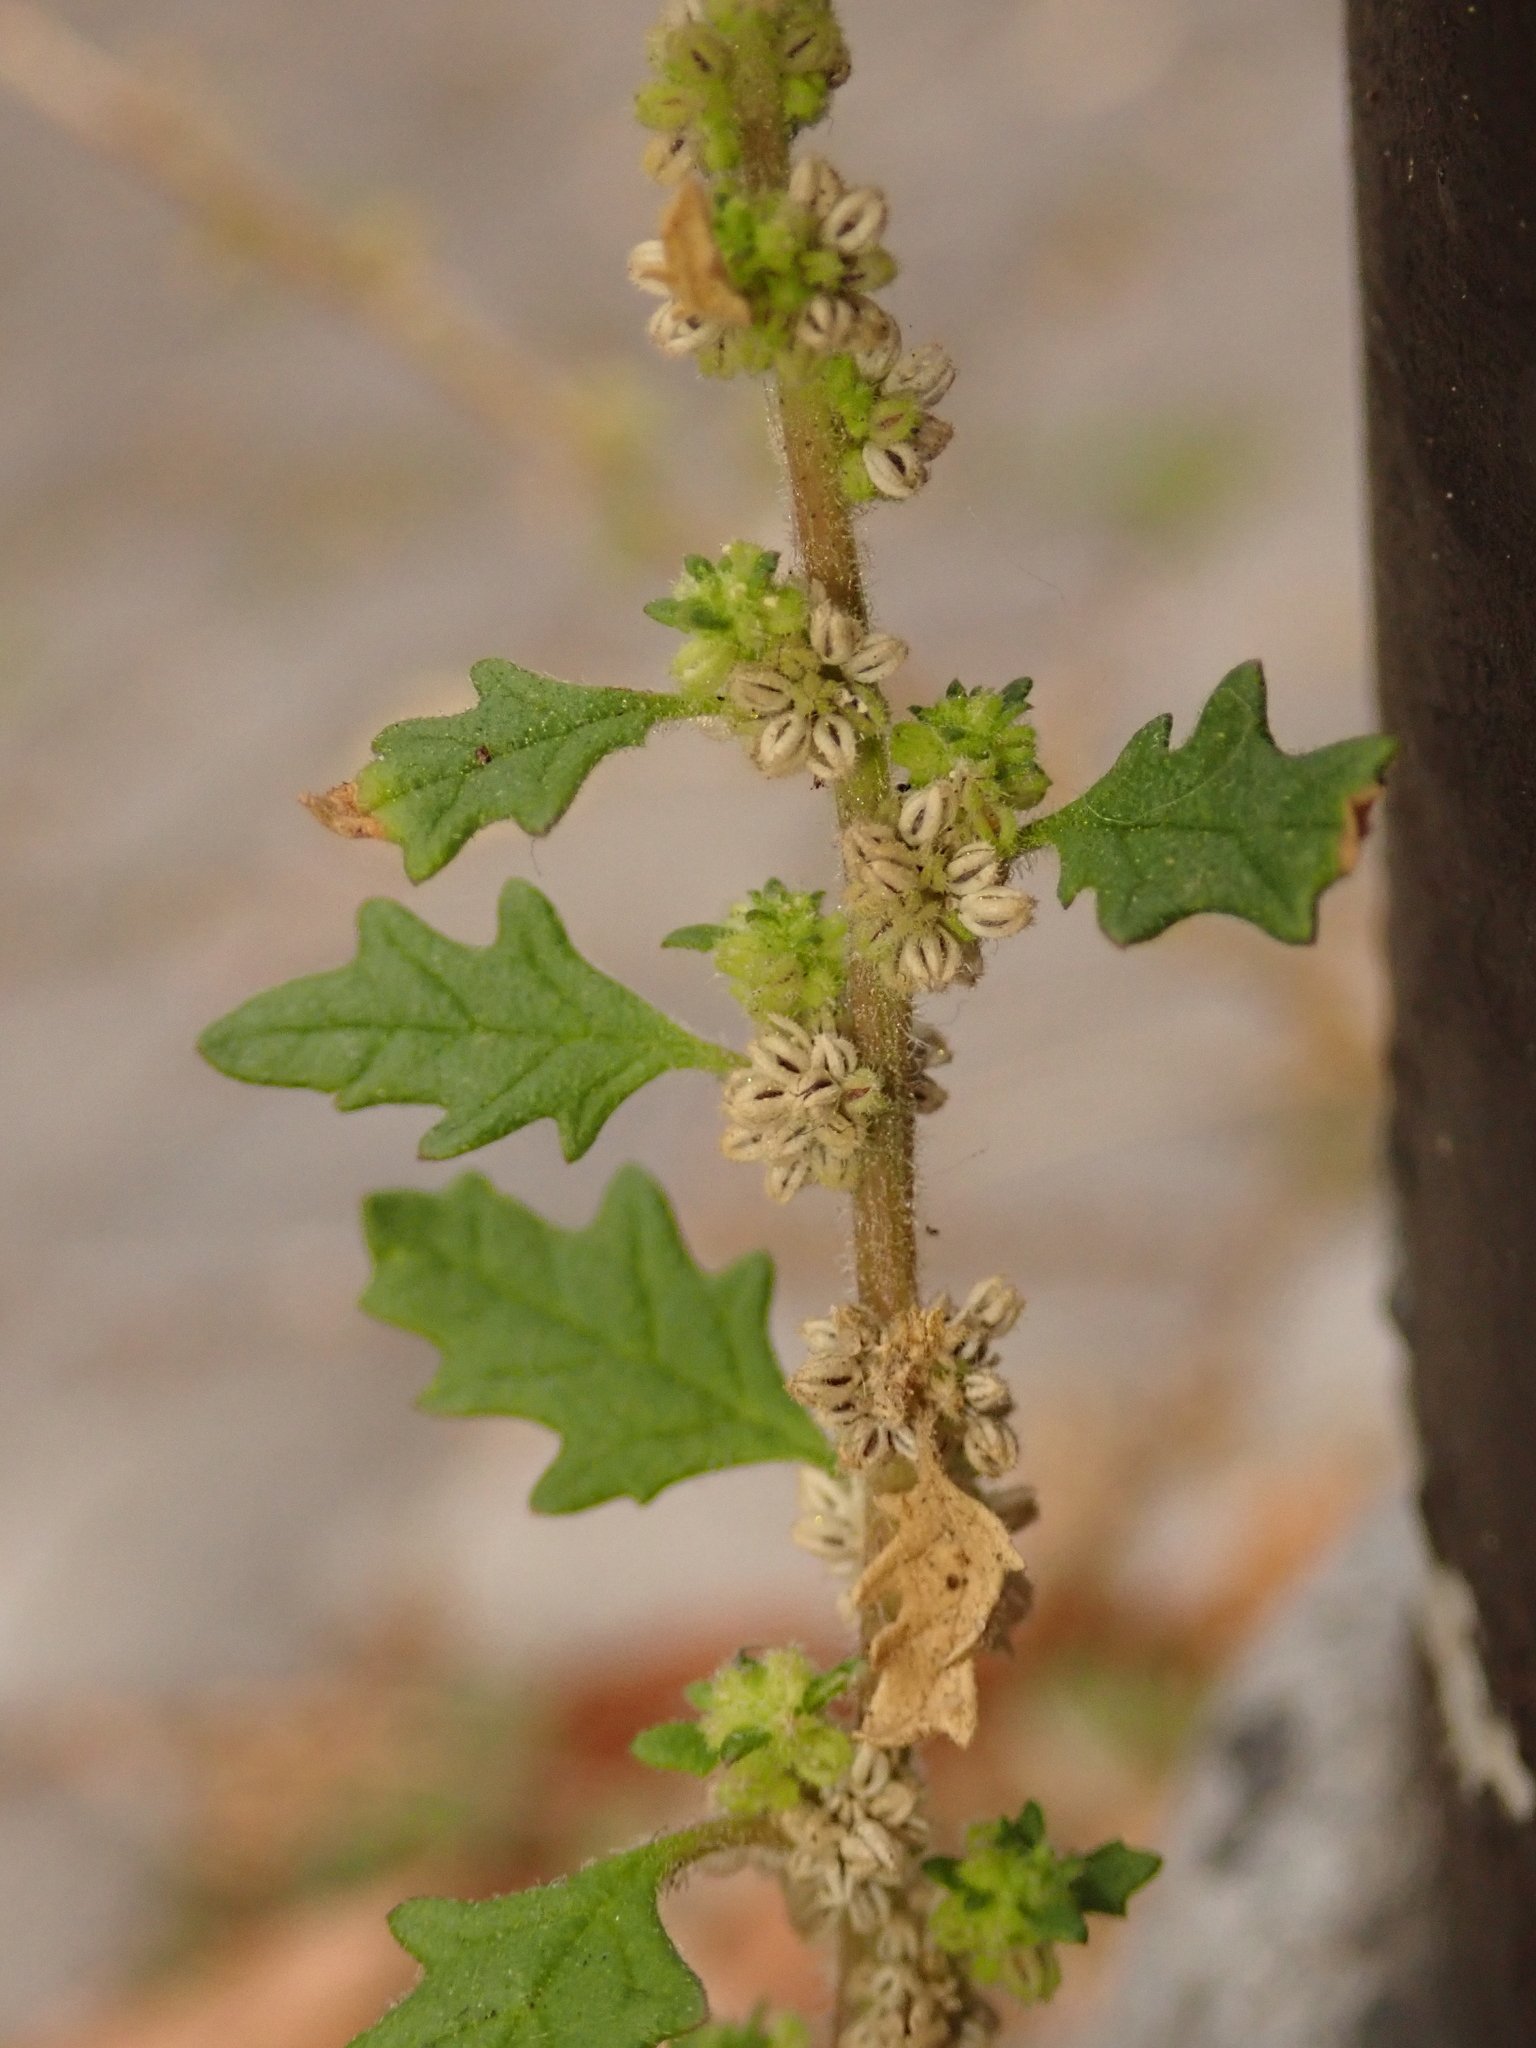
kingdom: Plantae
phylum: Tracheophyta
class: Magnoliopsida
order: Caryophyllales
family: Amaranthaceae
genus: Dysphania
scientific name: Dysphania pumilio
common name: Clammy goosefoot
